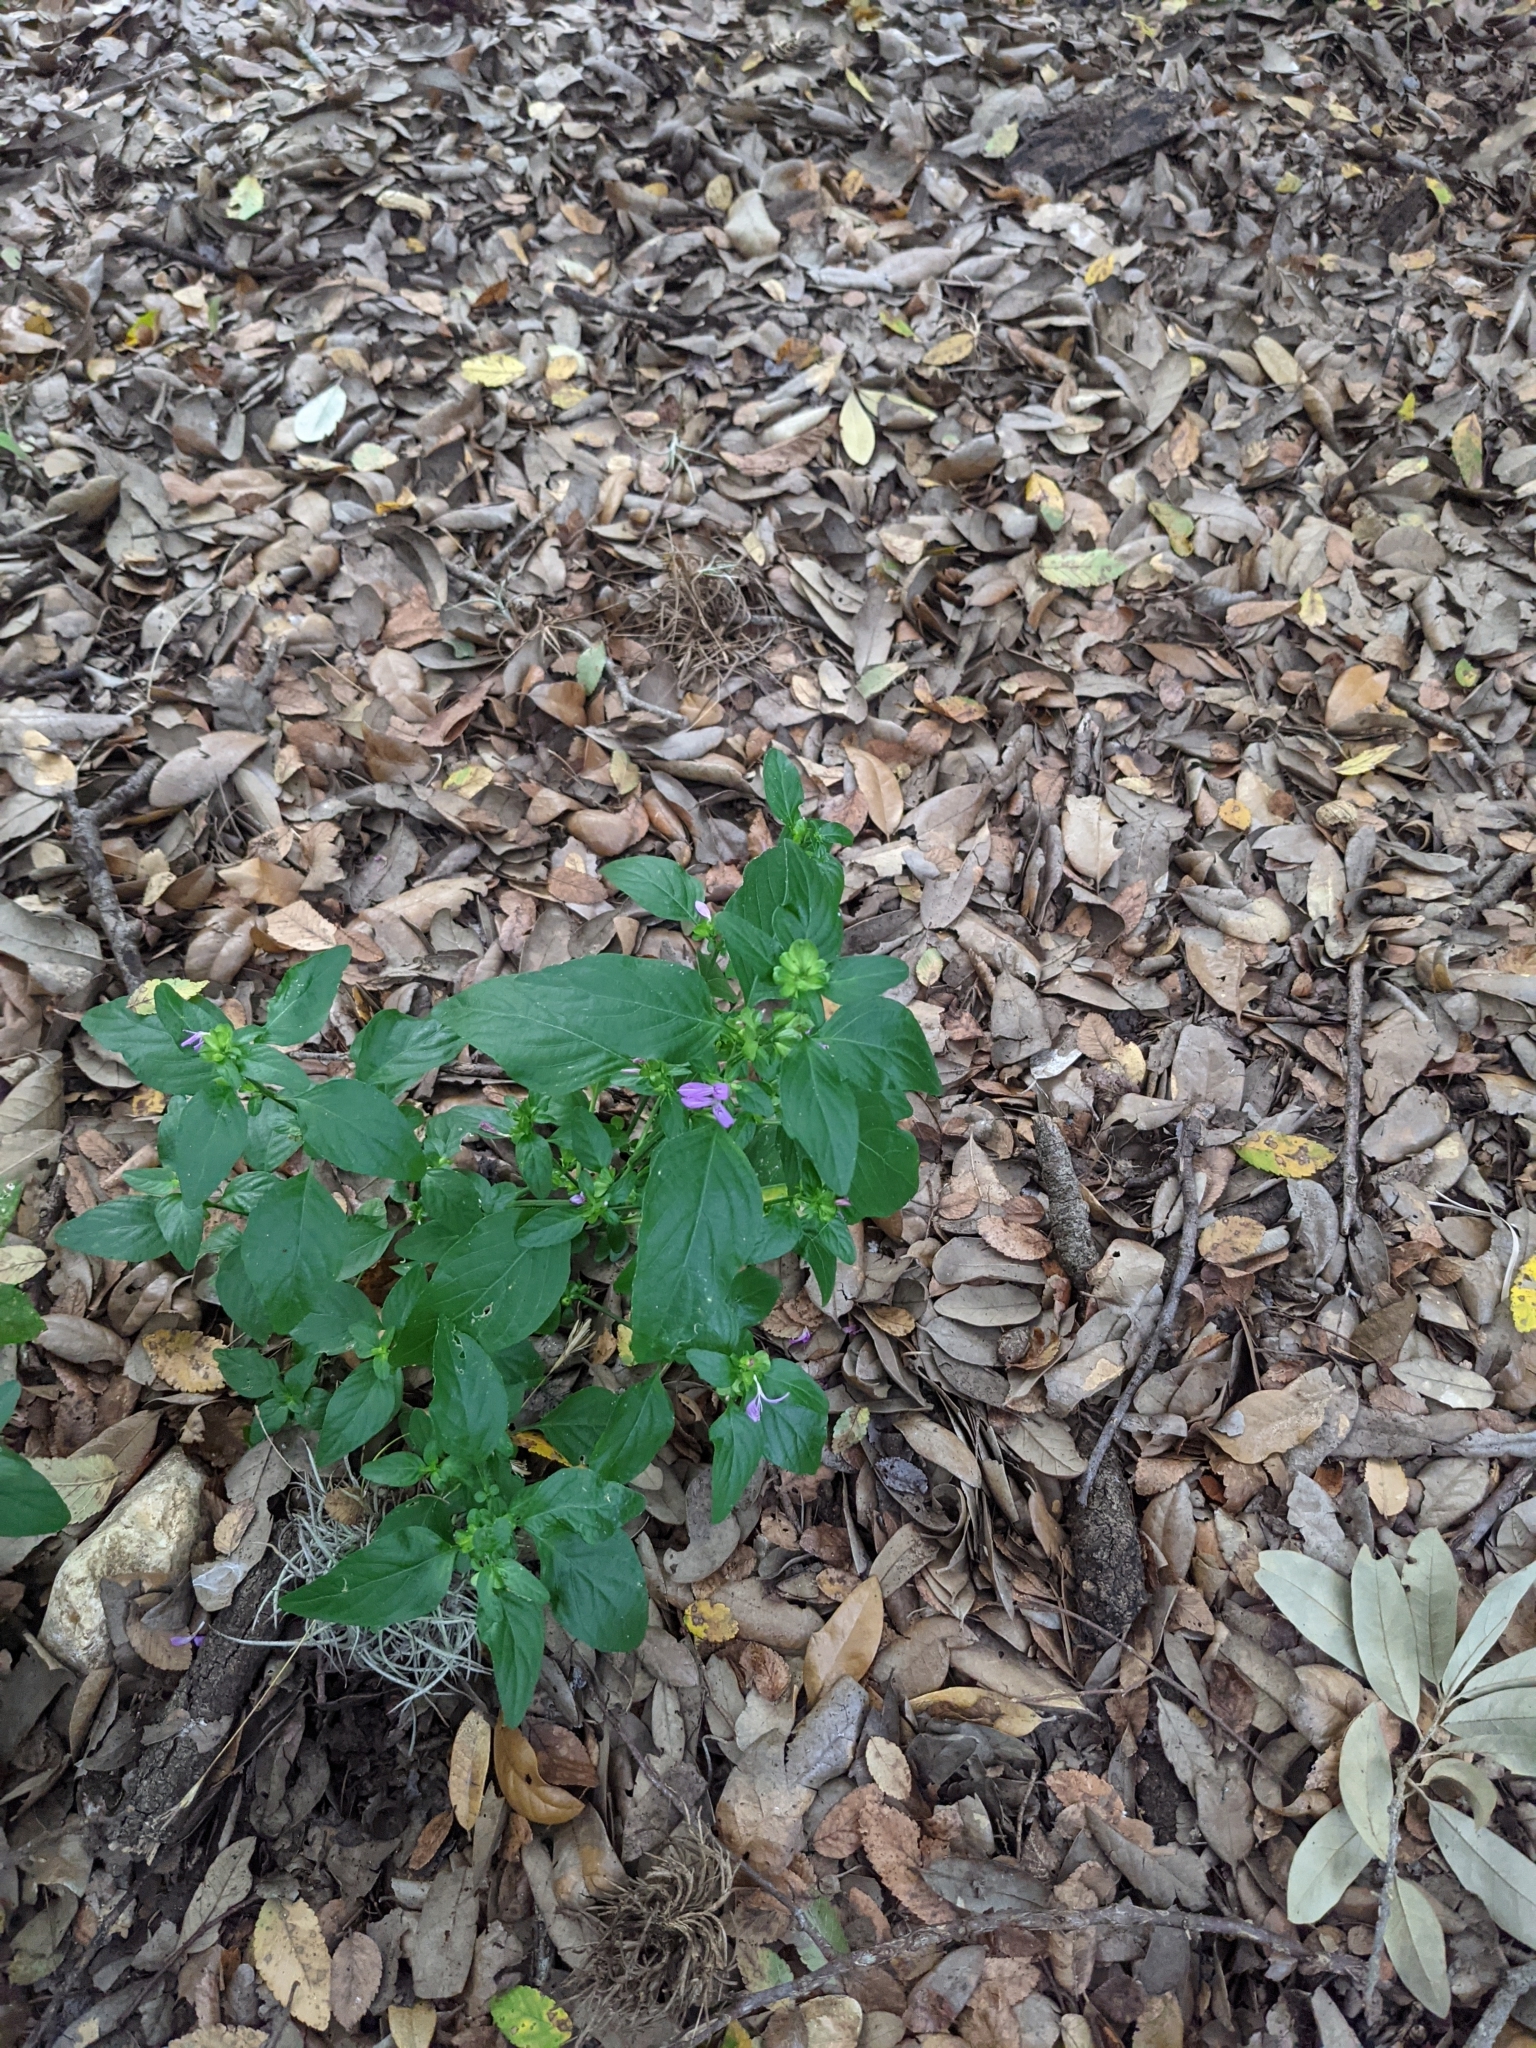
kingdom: Plantae
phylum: Tracheophyta
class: Magnoliopsida
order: Lamiales
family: Acanthaceae
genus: Dicliptera
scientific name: Dicliptera brachiata
